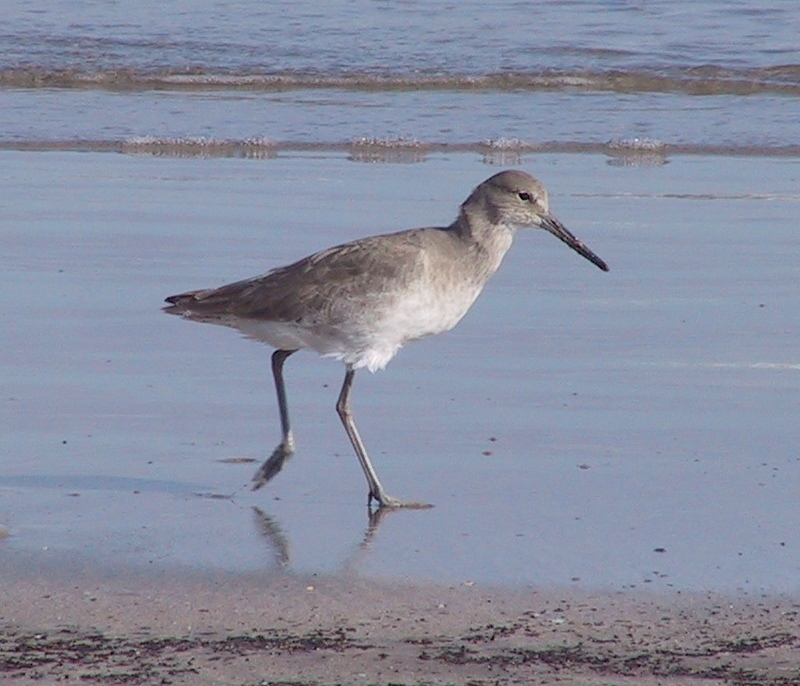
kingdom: Animalia
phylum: Chordata
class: Aves
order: Charadriiformes
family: Scolopacidae
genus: Tringa
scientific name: Tringa semipalmata
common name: Willet
